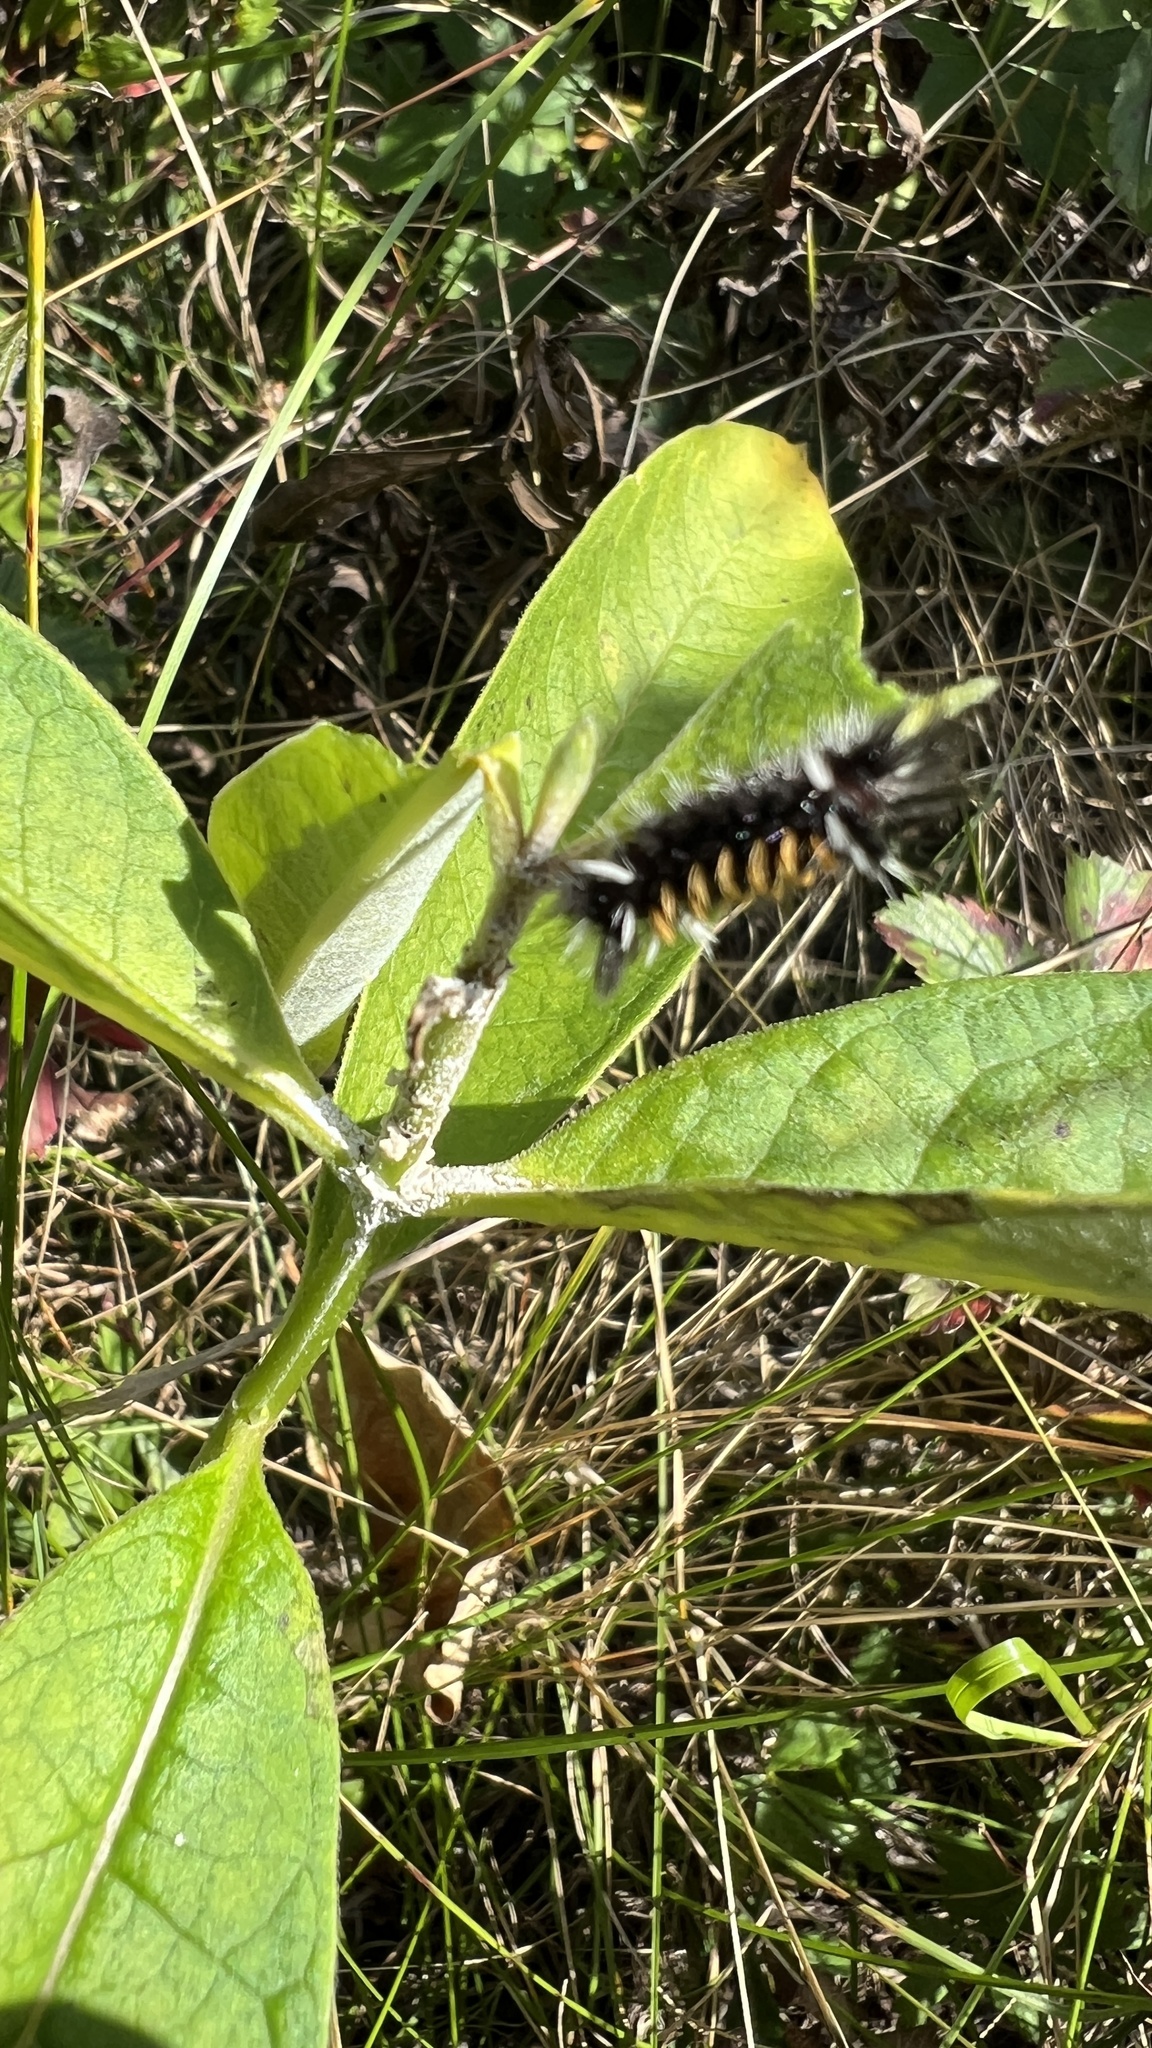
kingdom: Animalia
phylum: Arthropoda
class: Insecta
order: Lepidoptera
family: Erebidae
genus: Euchaetes
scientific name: Euchaetes egle
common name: Milkweed tussock moth
